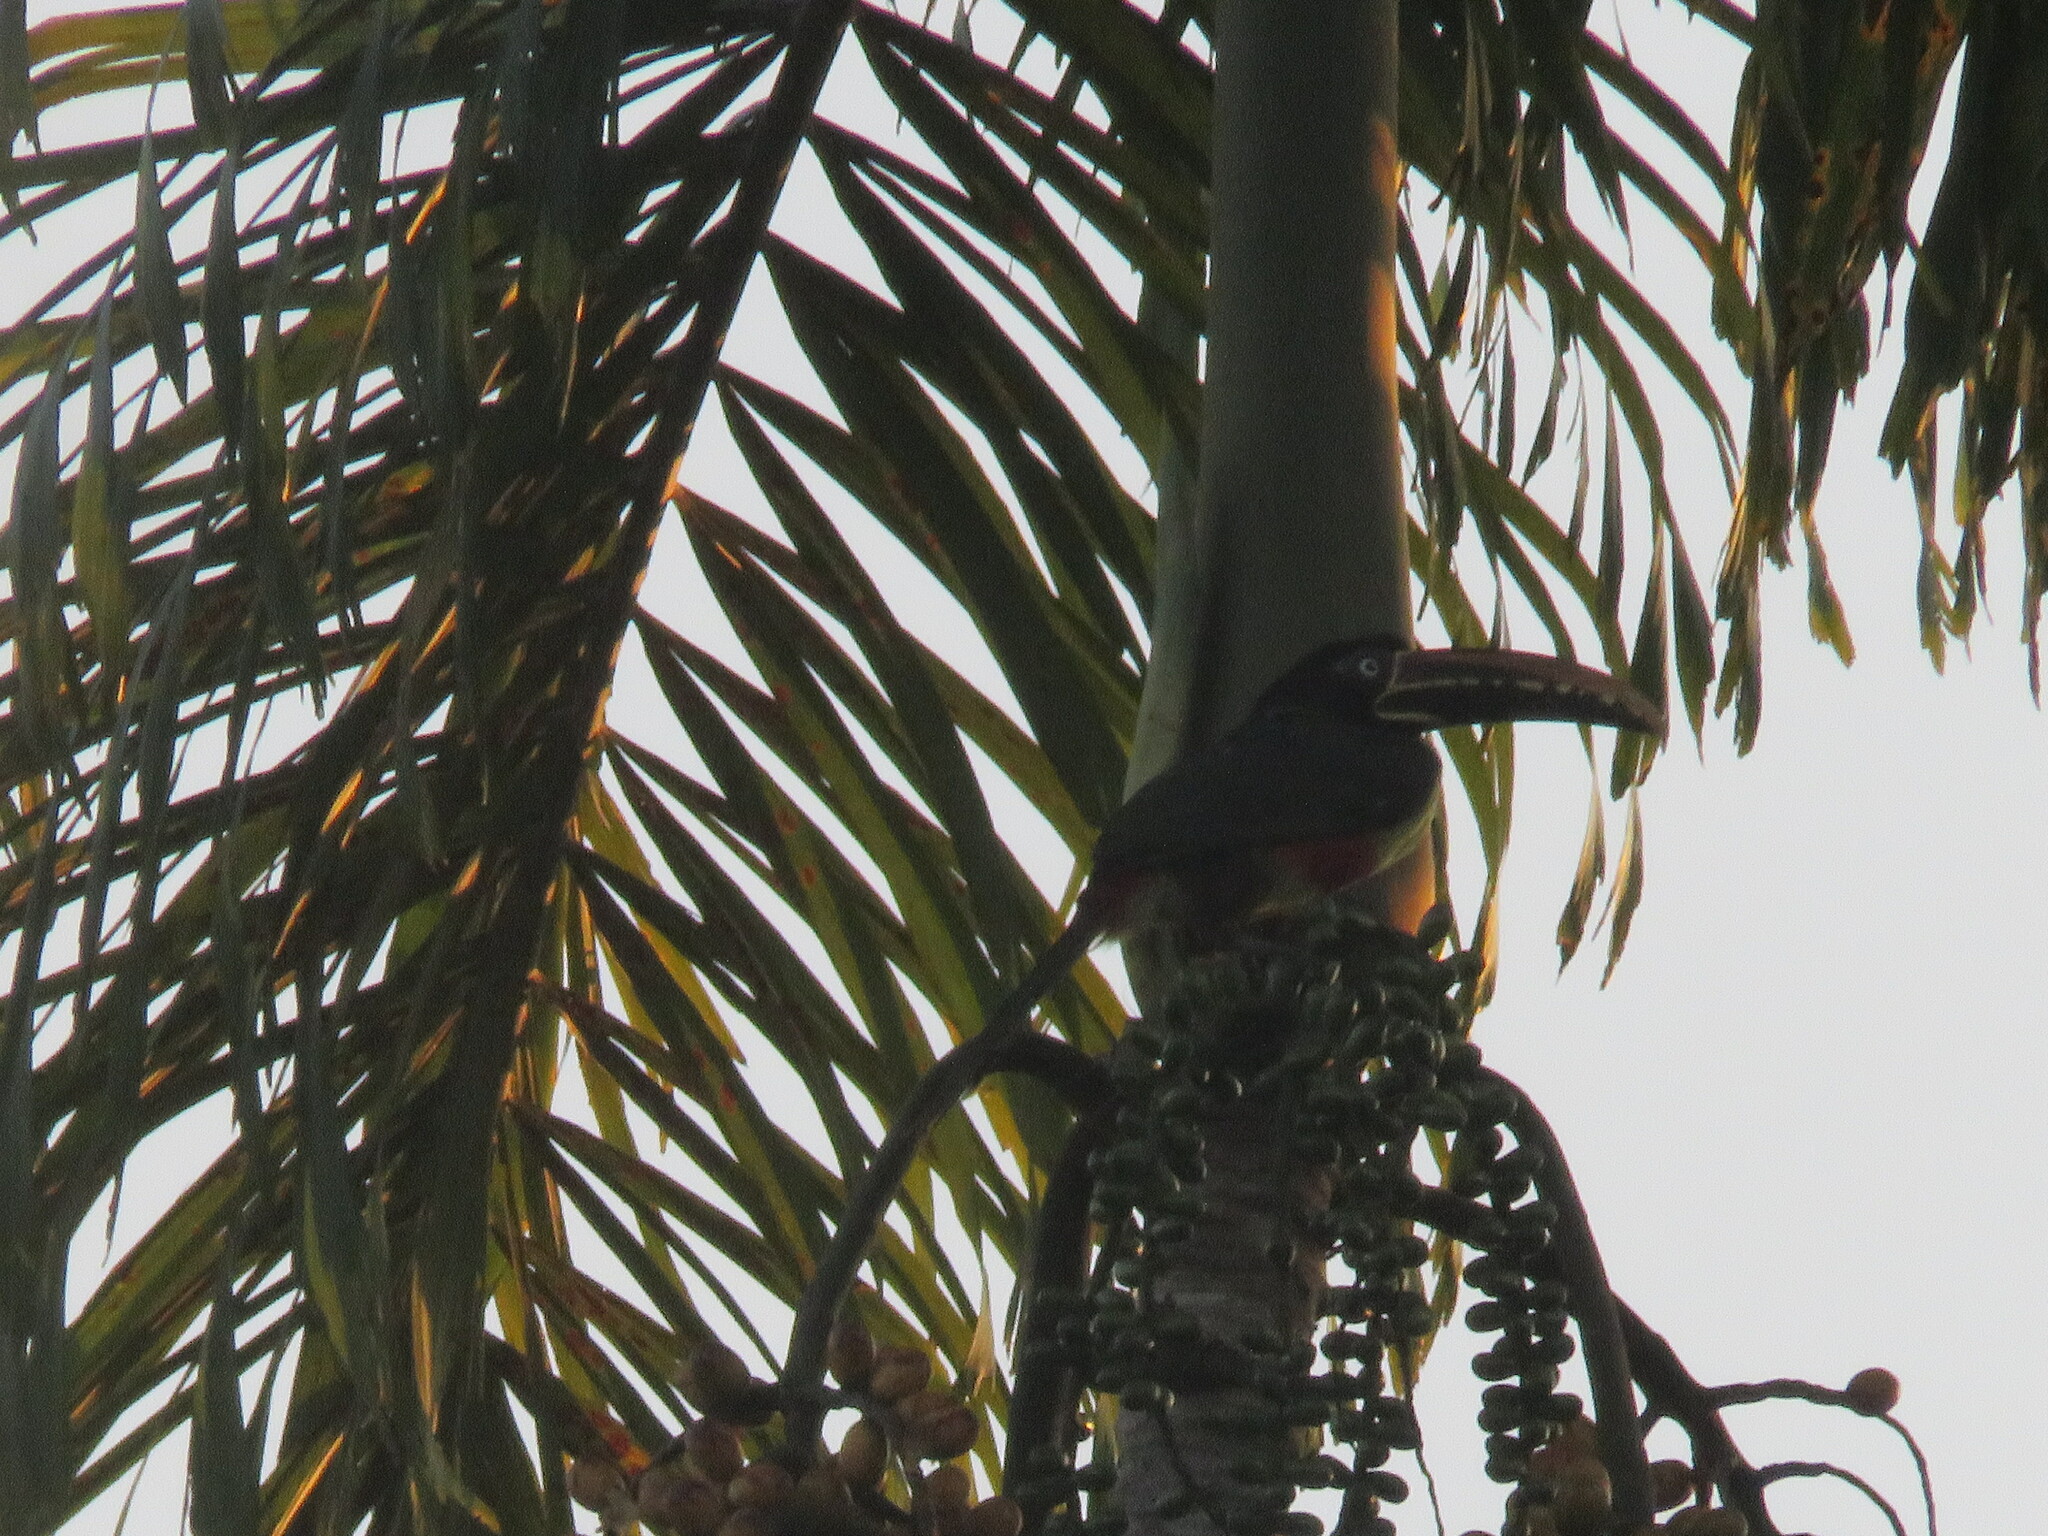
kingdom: Animalia
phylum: Chordata
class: Aves
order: Piciformes
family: Ramphastidae
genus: Pteroglossus
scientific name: Pteroglossus castanotis
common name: Chestnut-eared aracari
